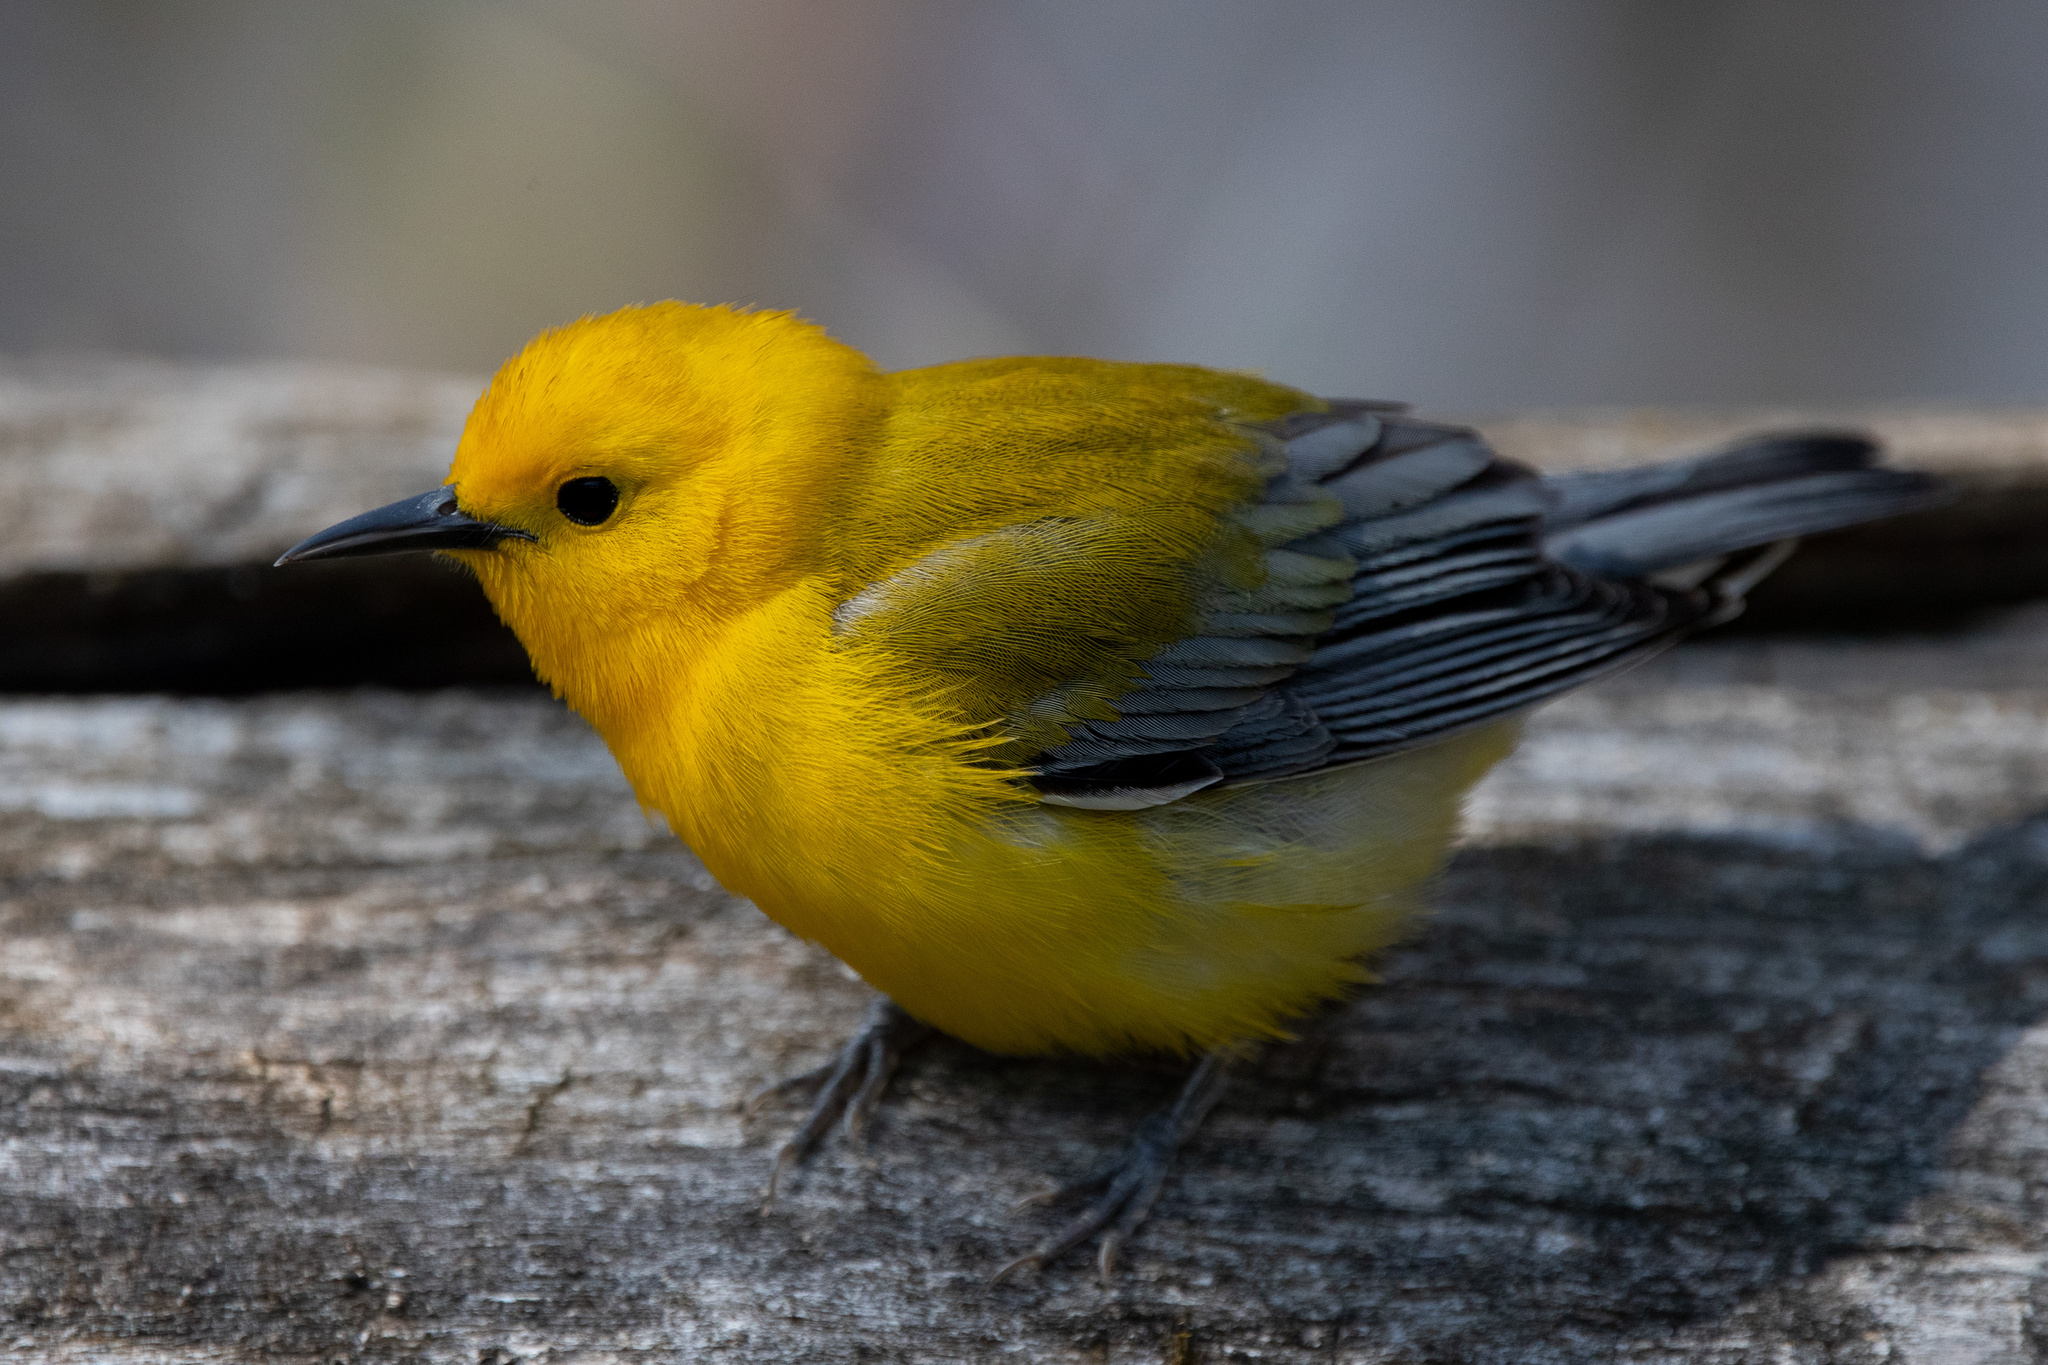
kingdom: Animalia
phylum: Chordata
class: Aves
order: Passeriformes
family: Parulidae
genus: Protonotaria
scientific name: Protonotaria citrea
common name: Prothonotary warbler
